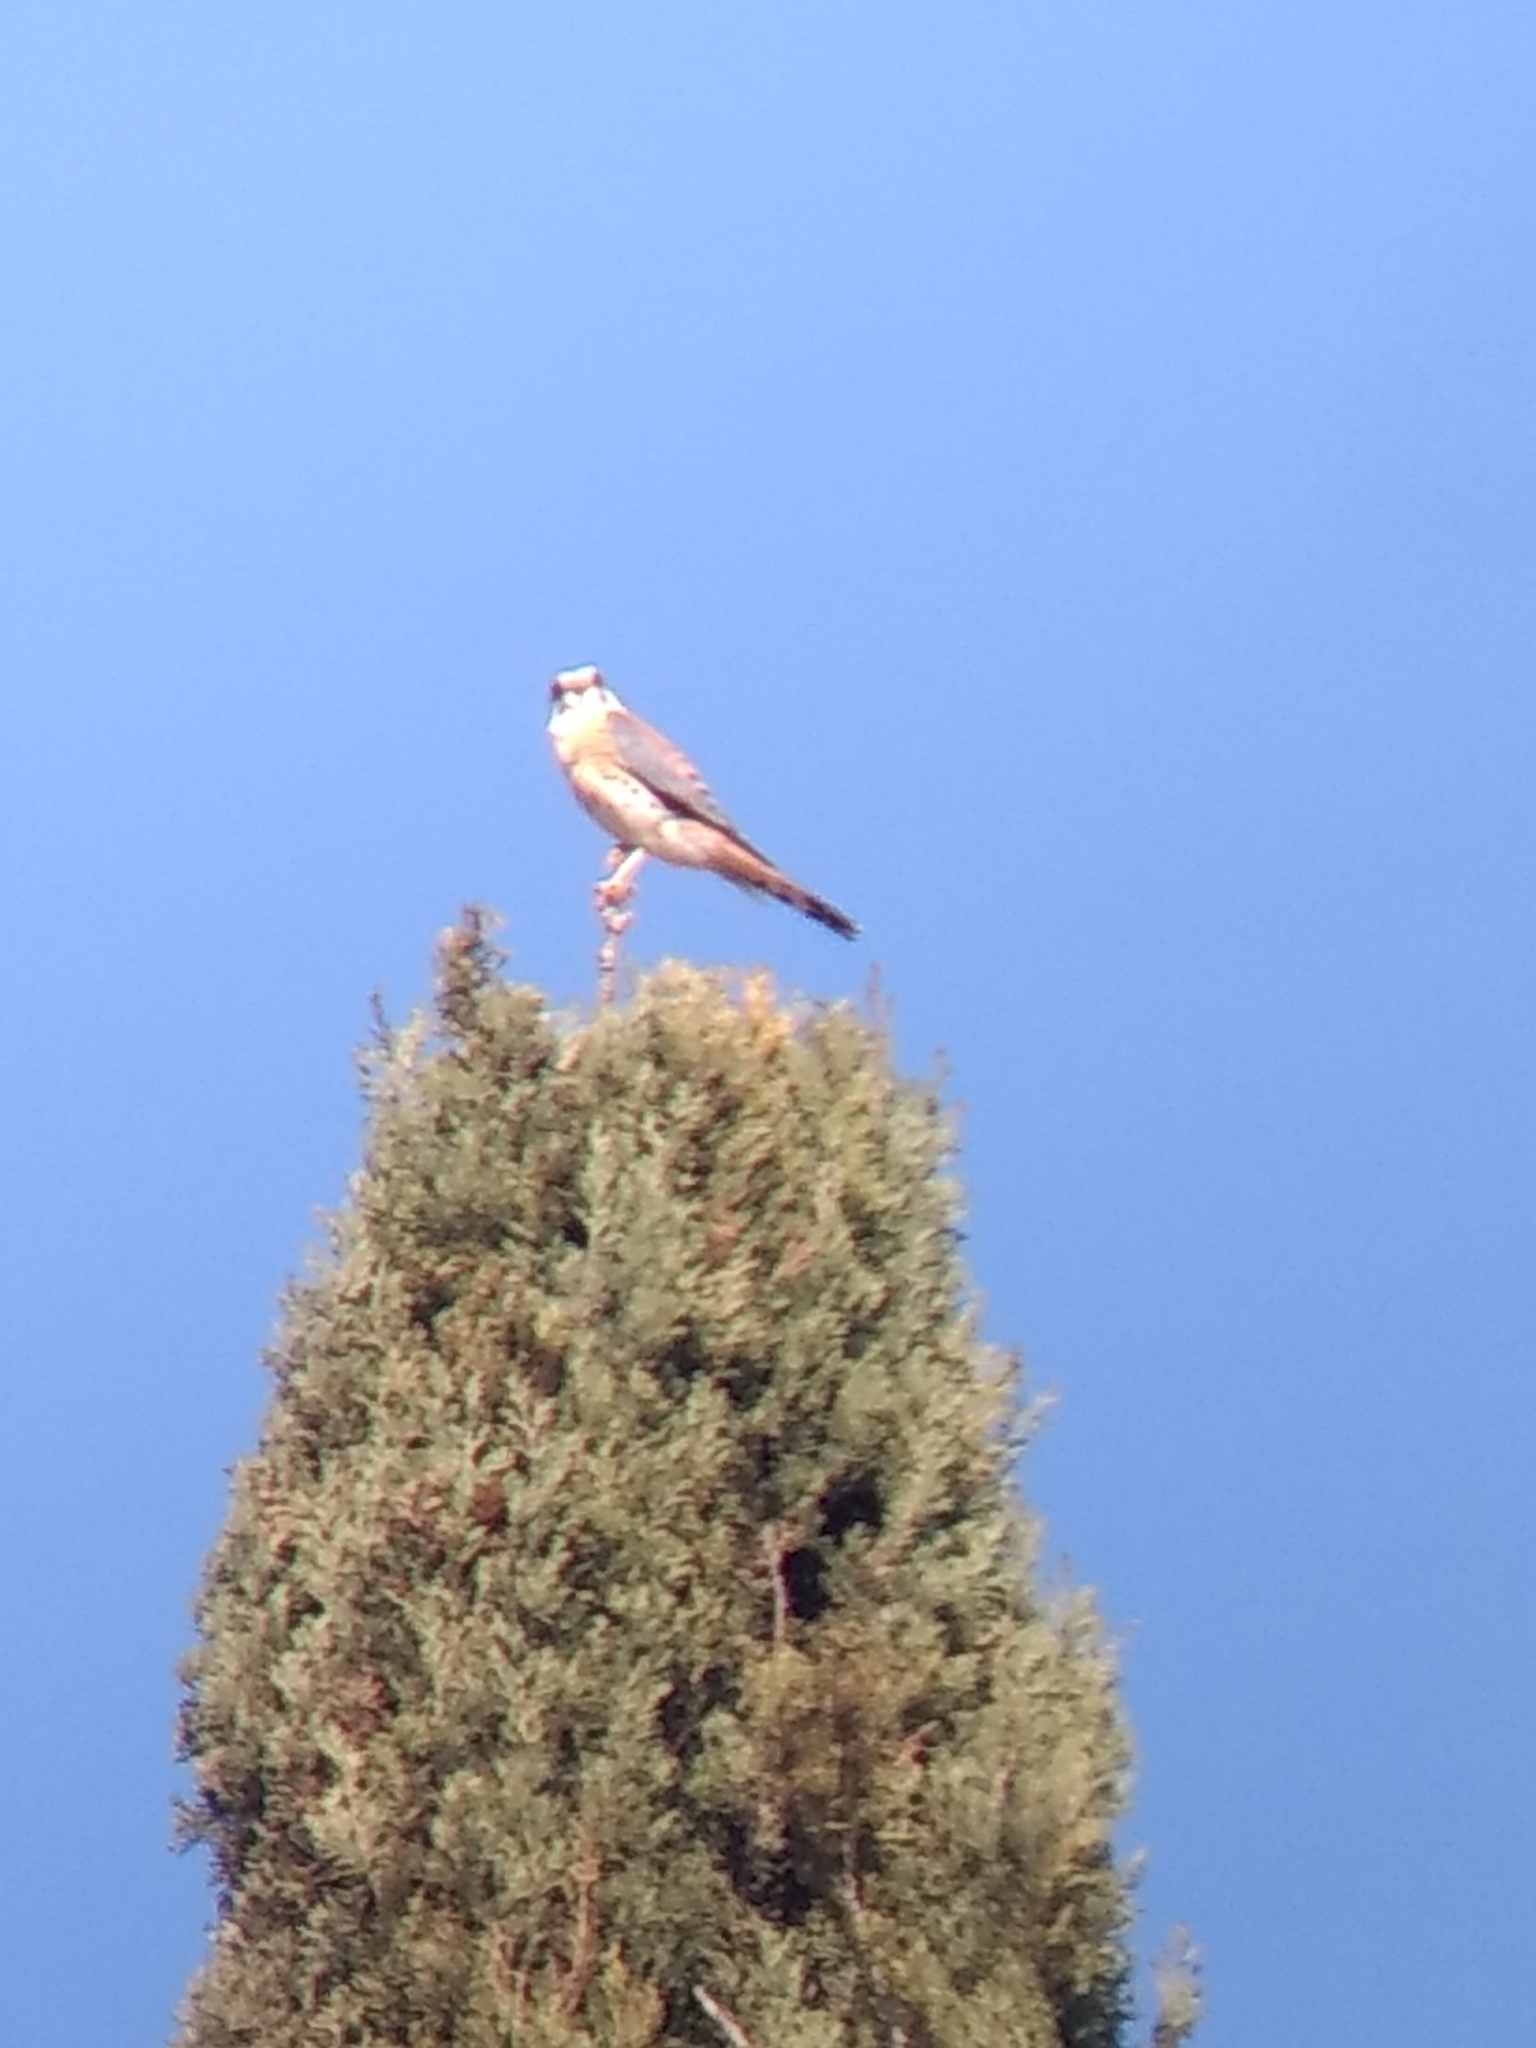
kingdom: Animalia
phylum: Chordata
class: Aves
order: Falconiformes
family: Falconidae
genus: Falco
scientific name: Falco sparverius
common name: American kestrel
